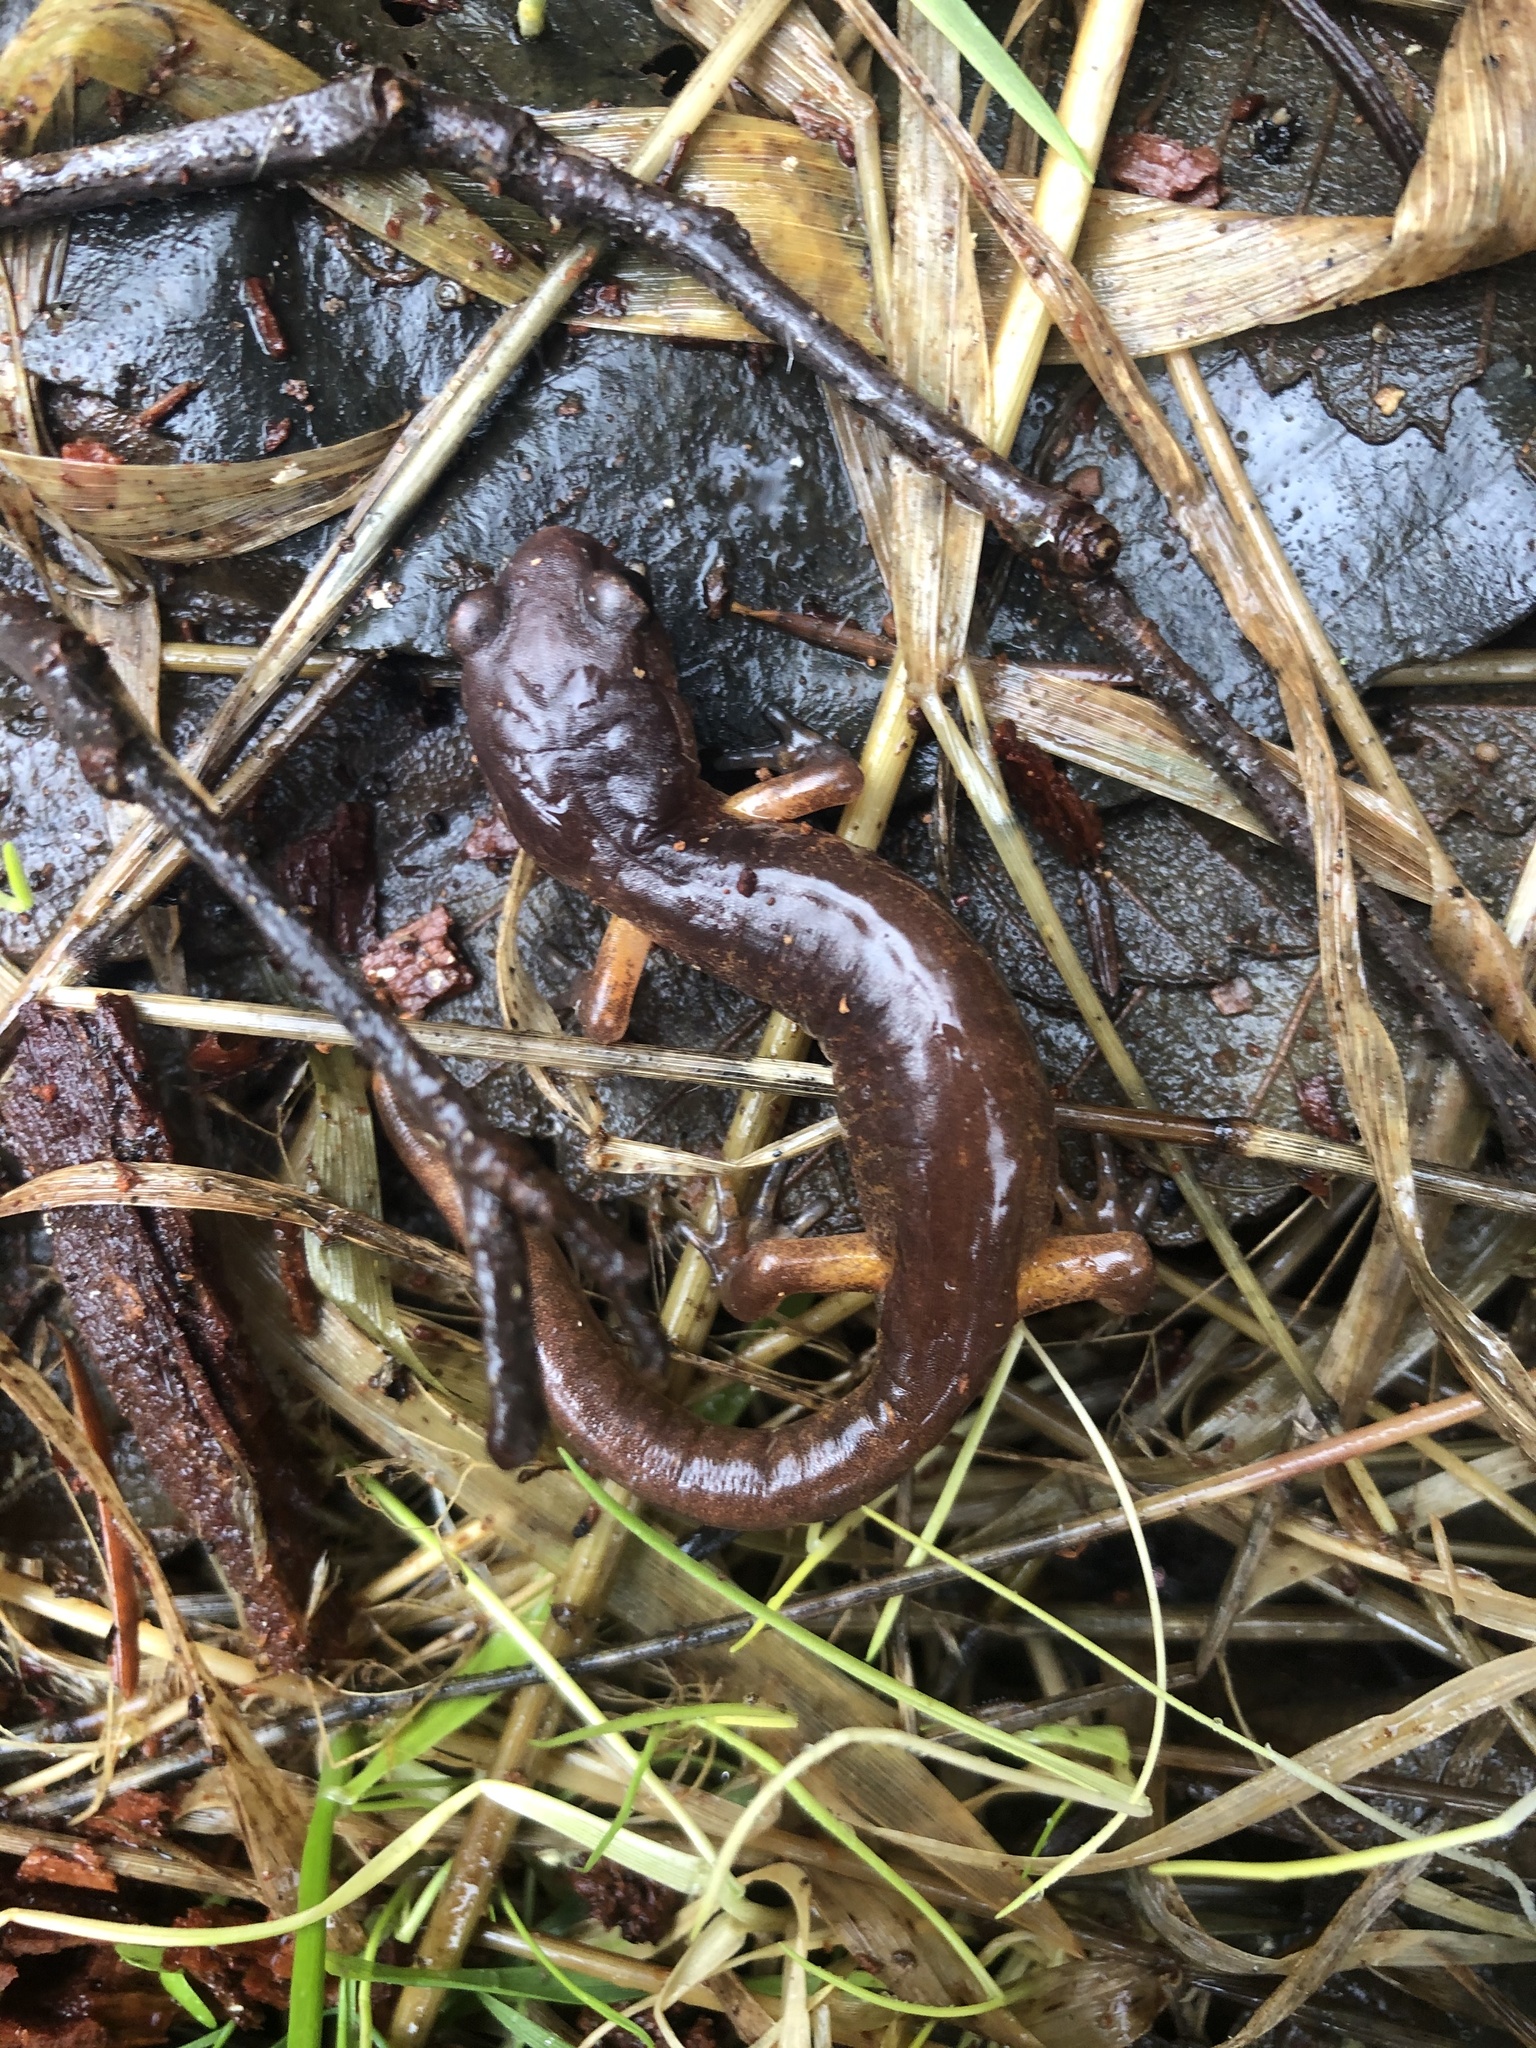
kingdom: Animalia
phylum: Chordata
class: Amphibia
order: Caudata
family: Plethodontidae
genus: Ensatina
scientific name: Ensatina eschscholtzii
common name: Ensatina
